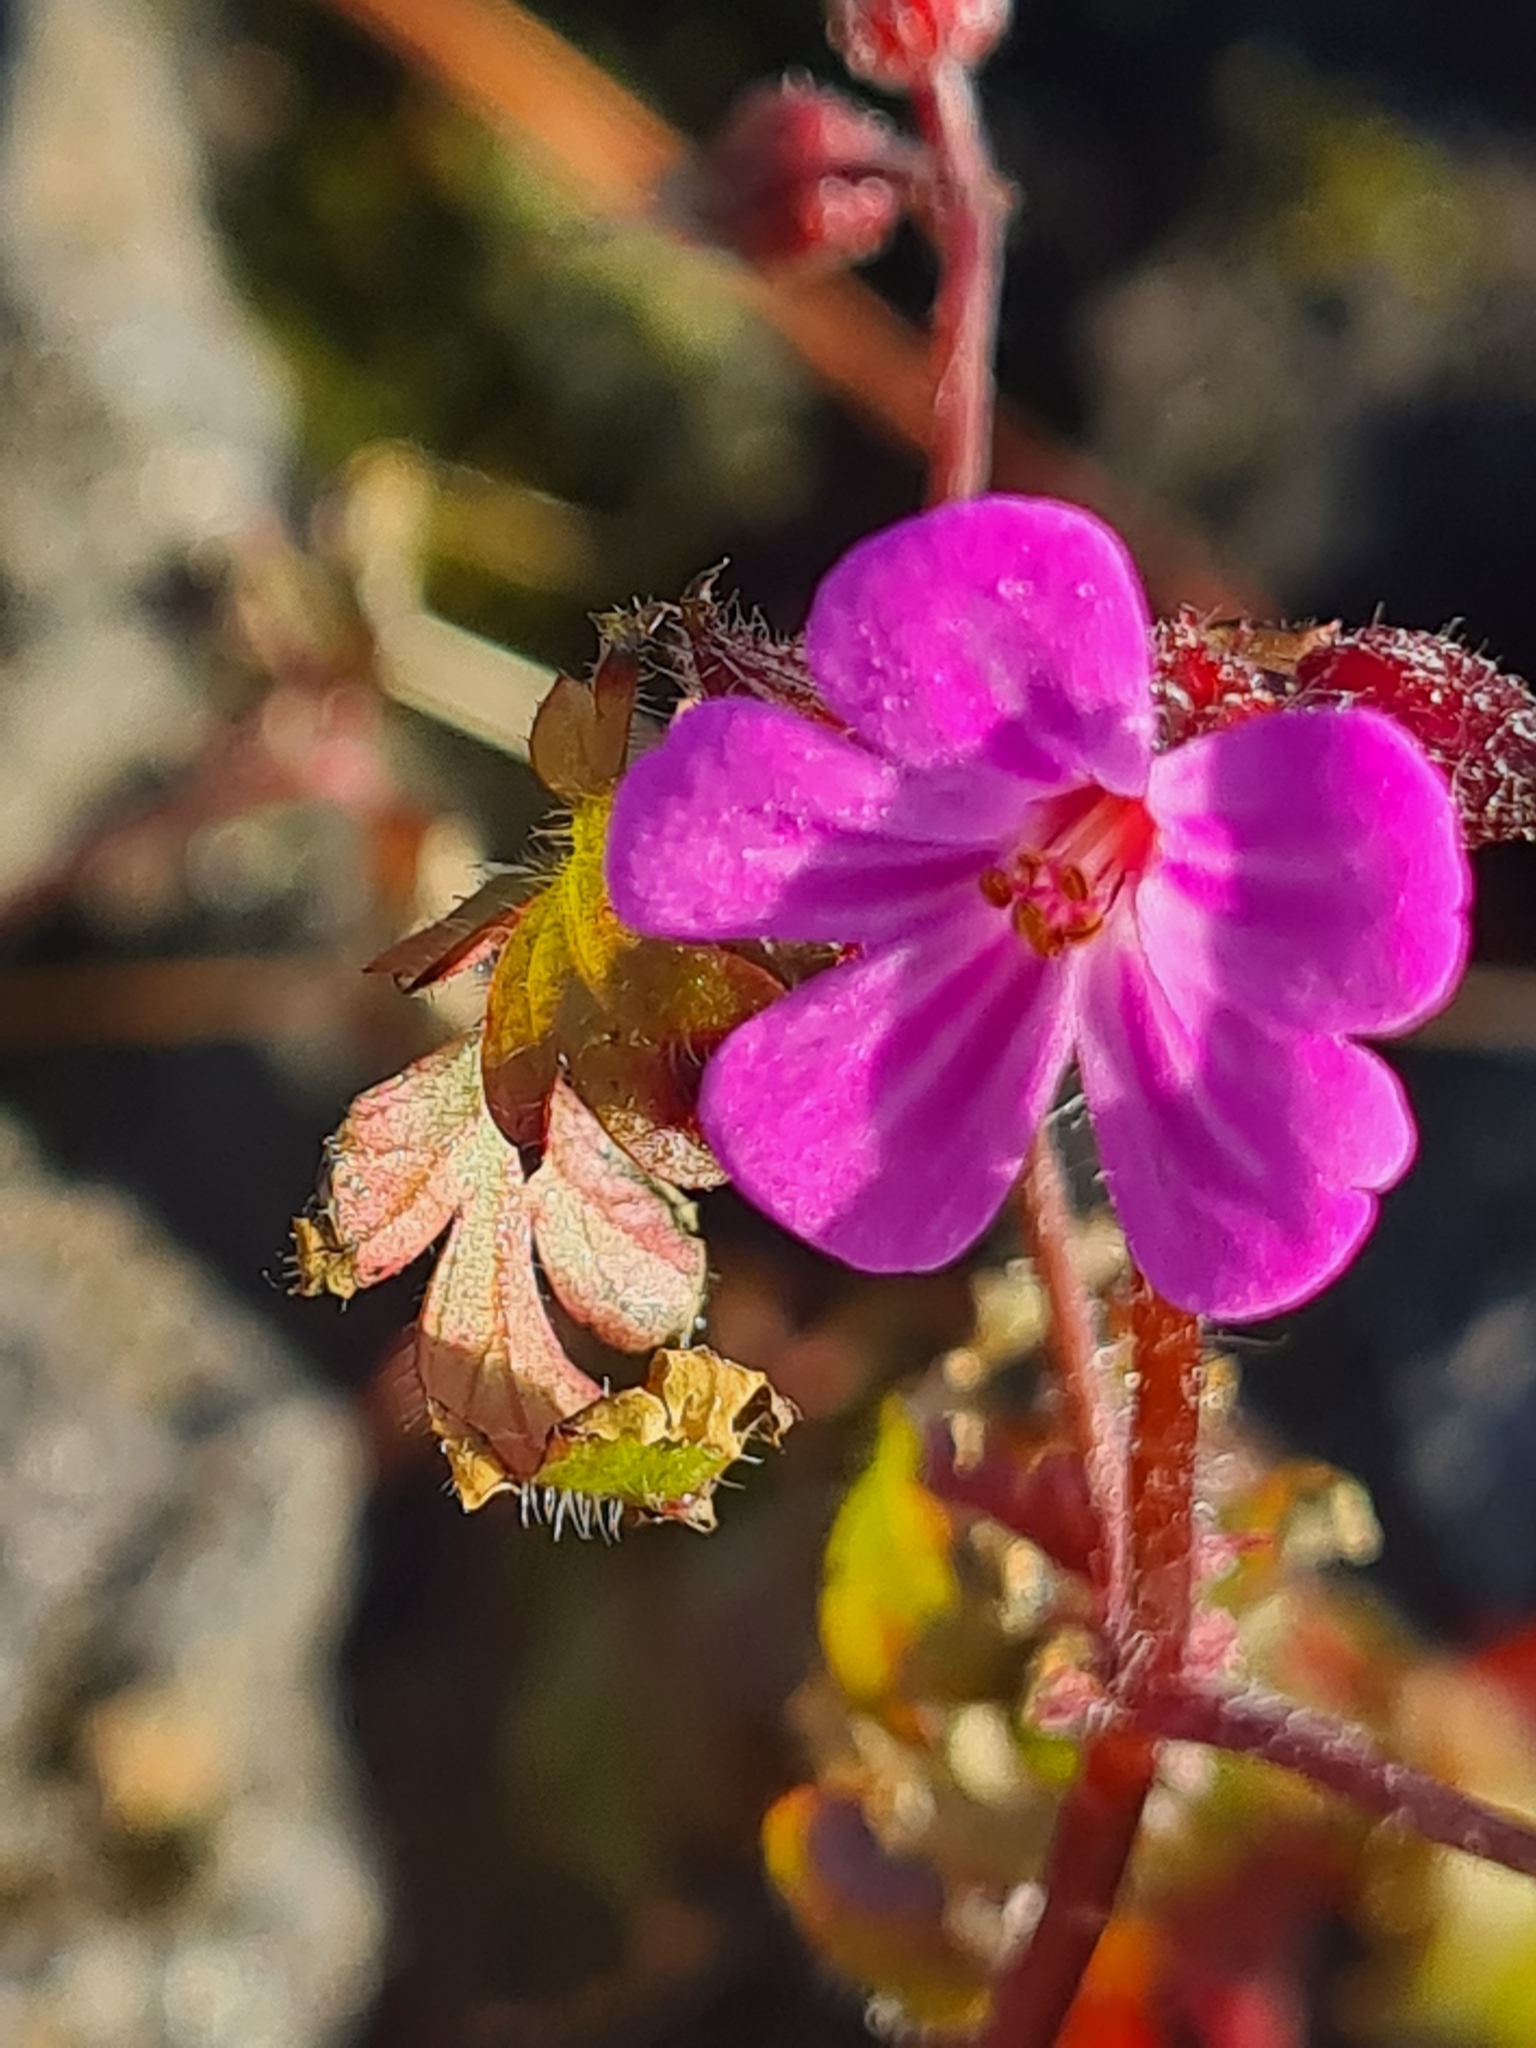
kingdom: Plantae
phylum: Tracheophyta
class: Magnoliopsida
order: Geraniales
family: Geraniaceae
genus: Geranium
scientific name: Geranium robertianum
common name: Herb-robert
